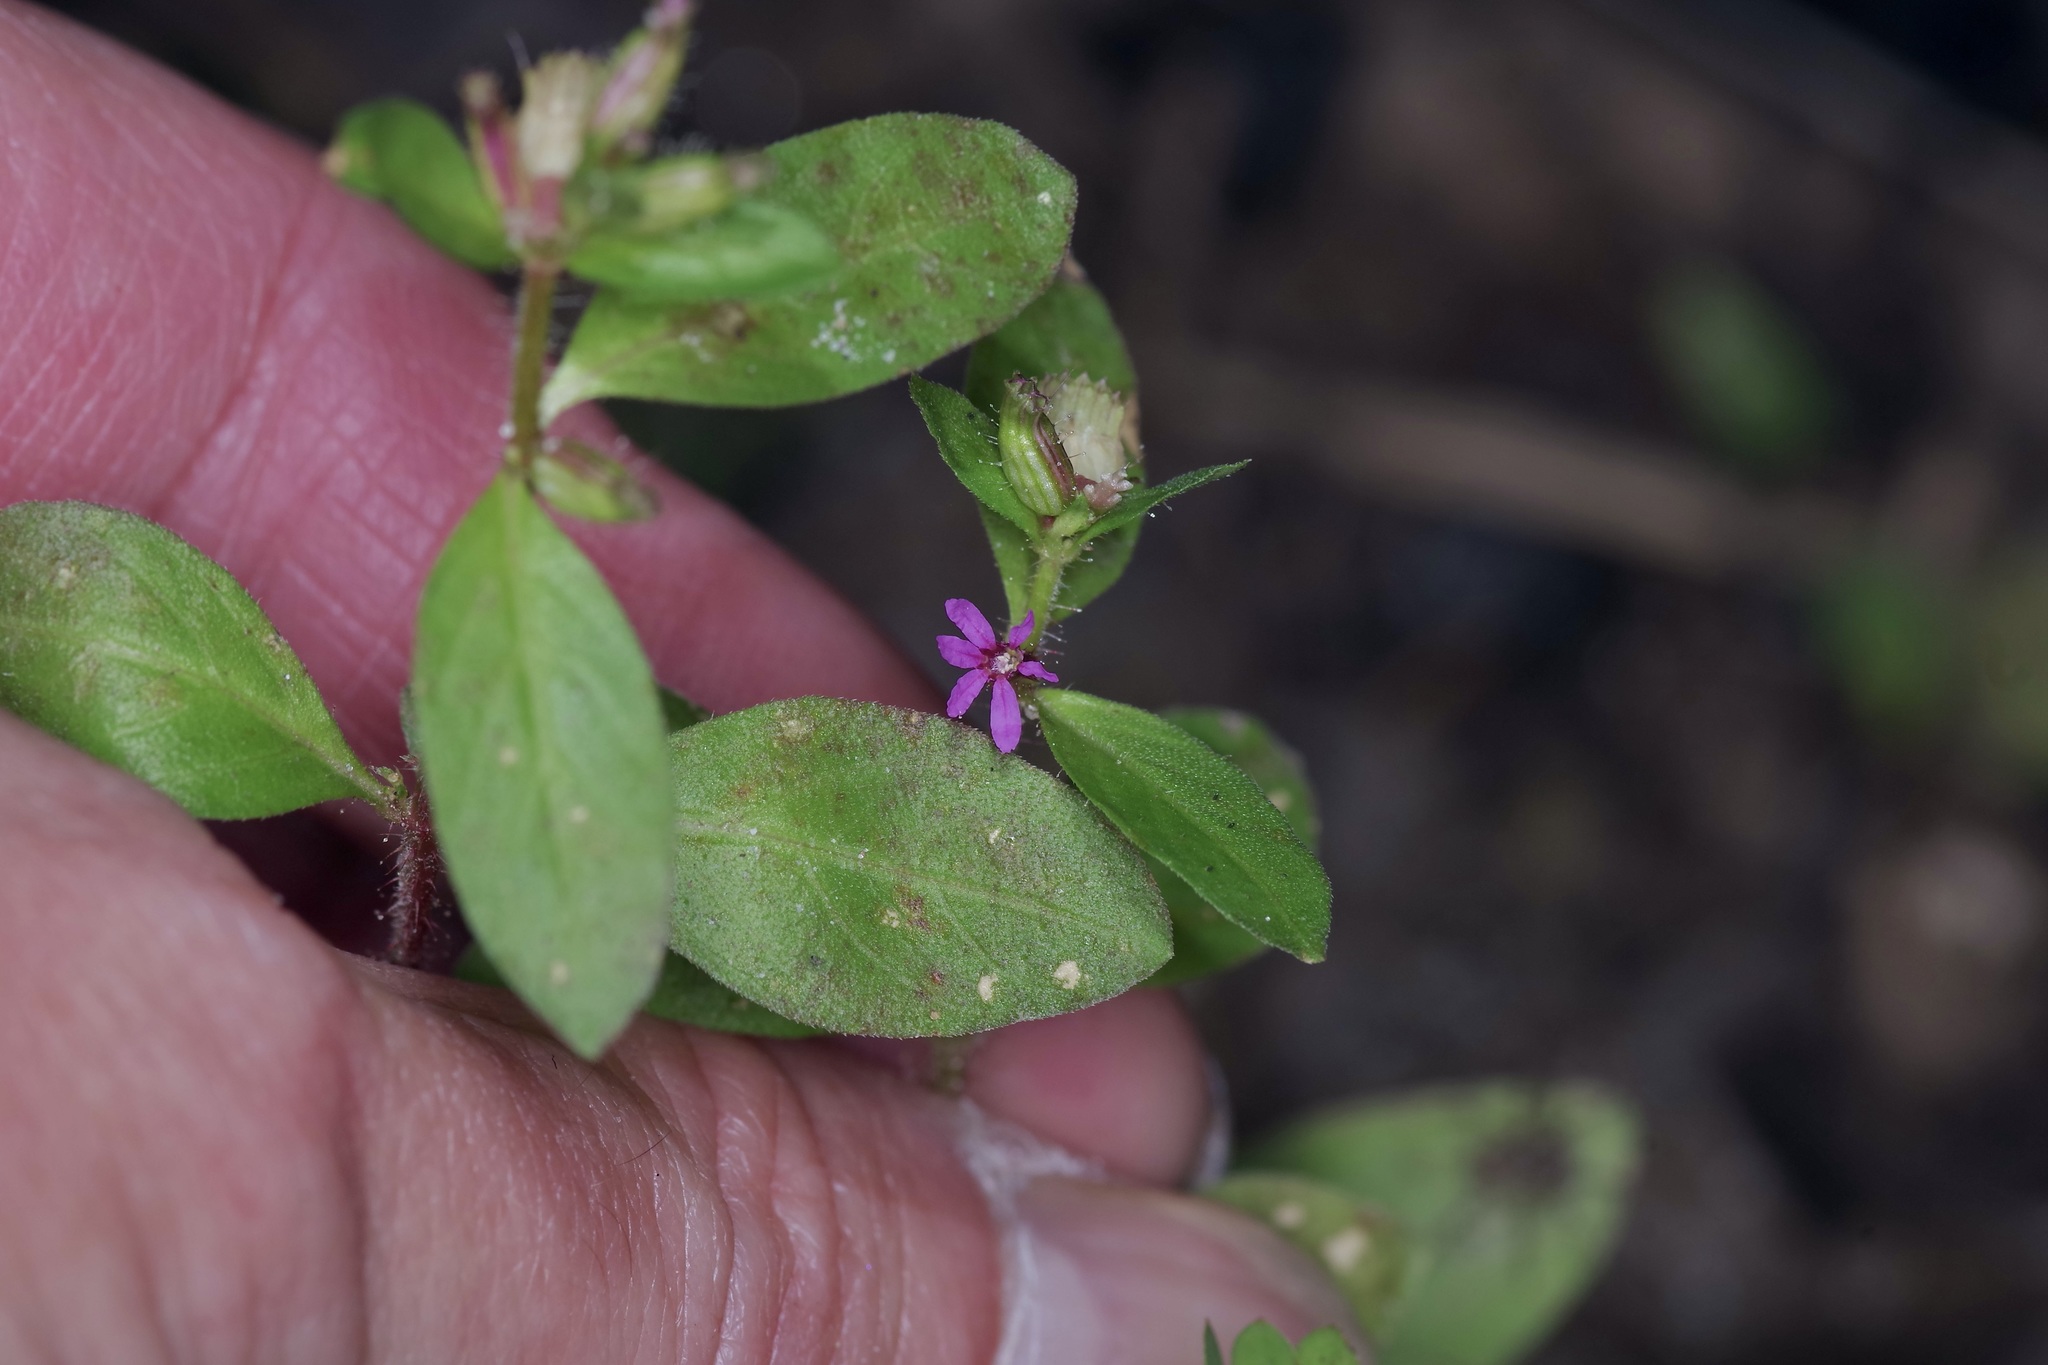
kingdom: Plantae
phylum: Tracheophyta
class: Magnoliopsida
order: Myrtales
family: Lythraceae
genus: Cuphea
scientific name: Cuphea carthagenensis
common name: Colombian waxweed
